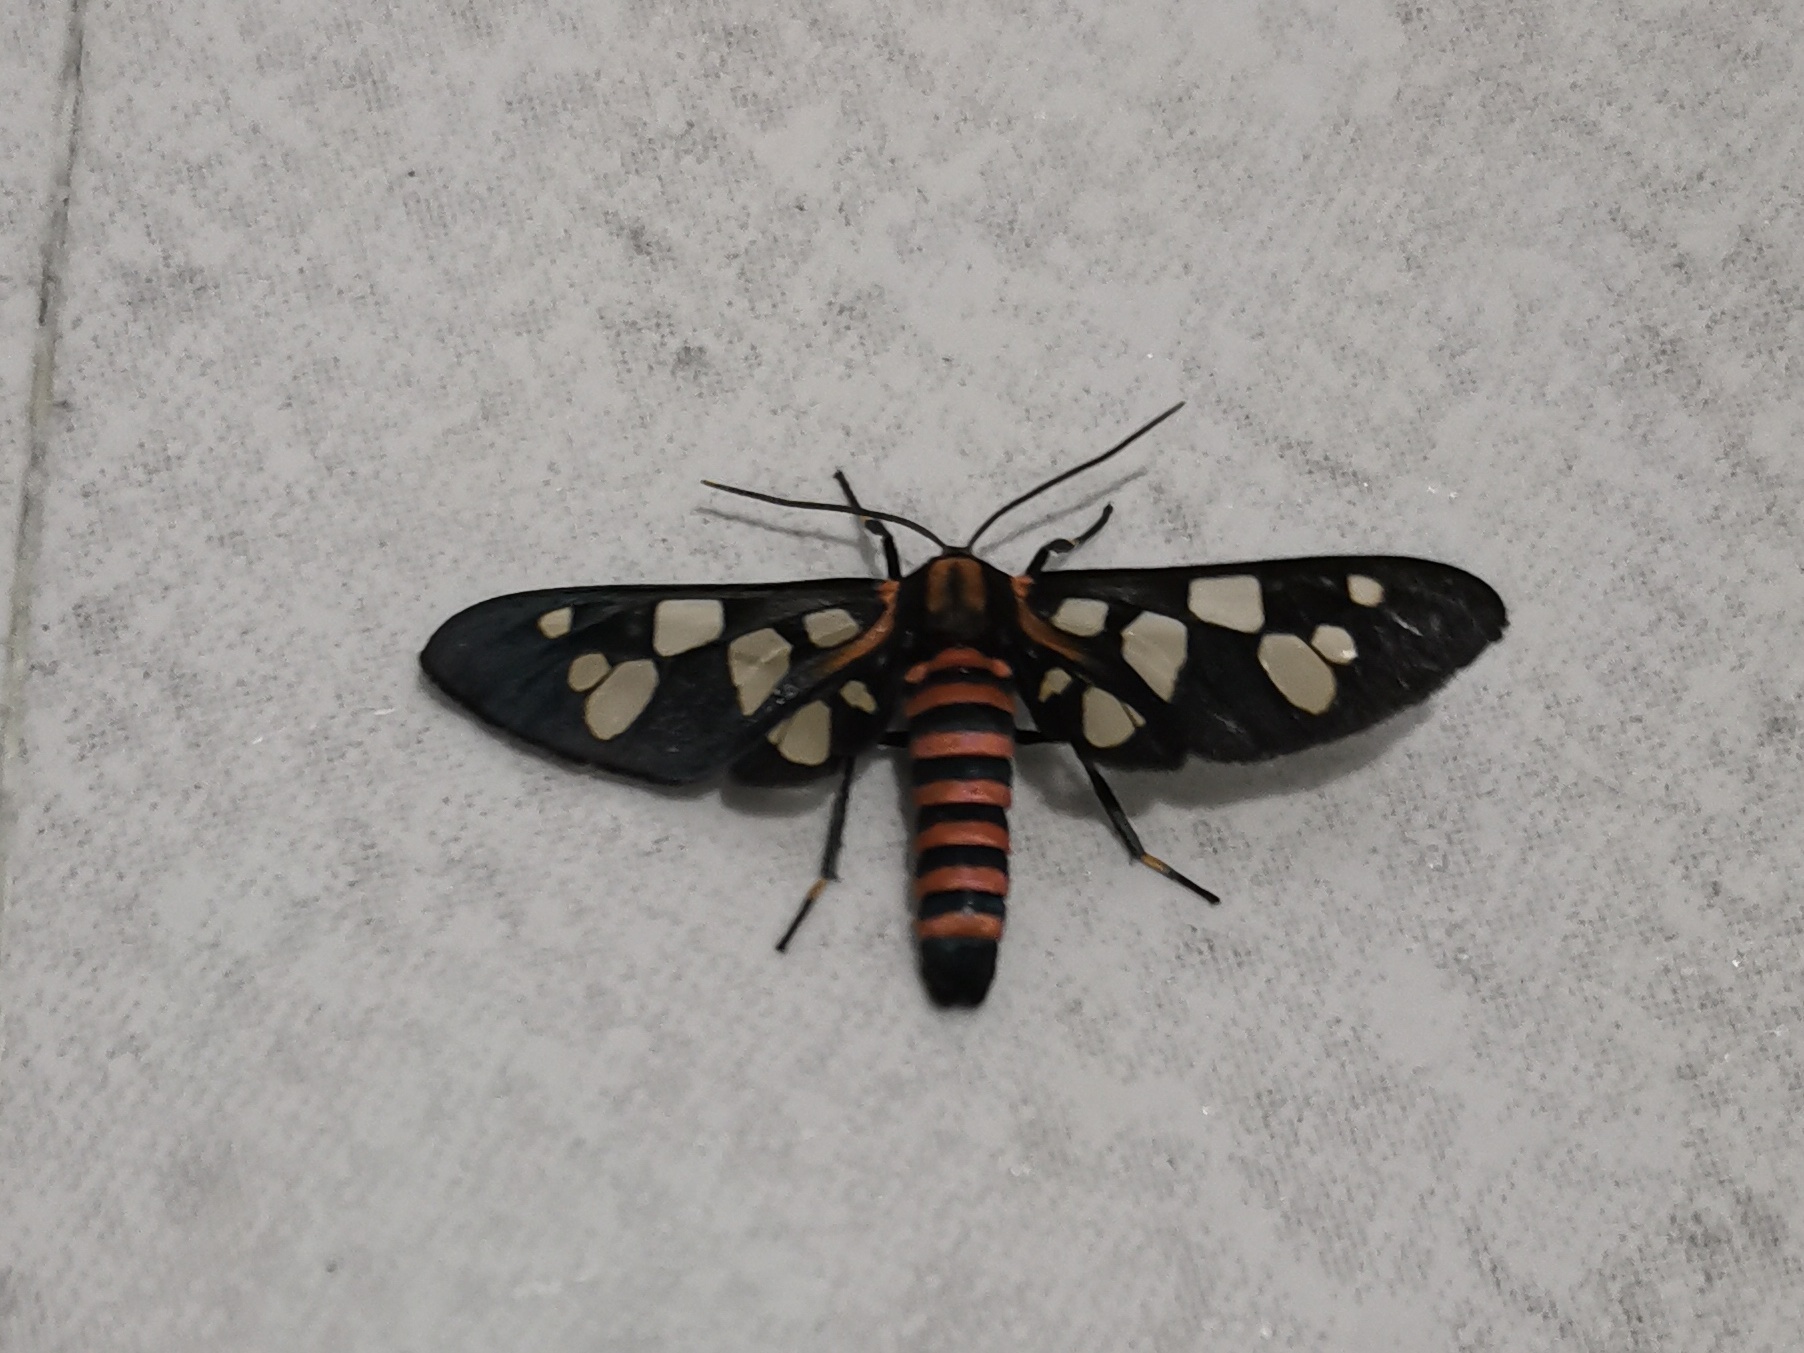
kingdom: Animalia
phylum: Arthropoda
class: Insecta
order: Lepidoptera
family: Erebidae
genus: Amata
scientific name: Amata passalis
